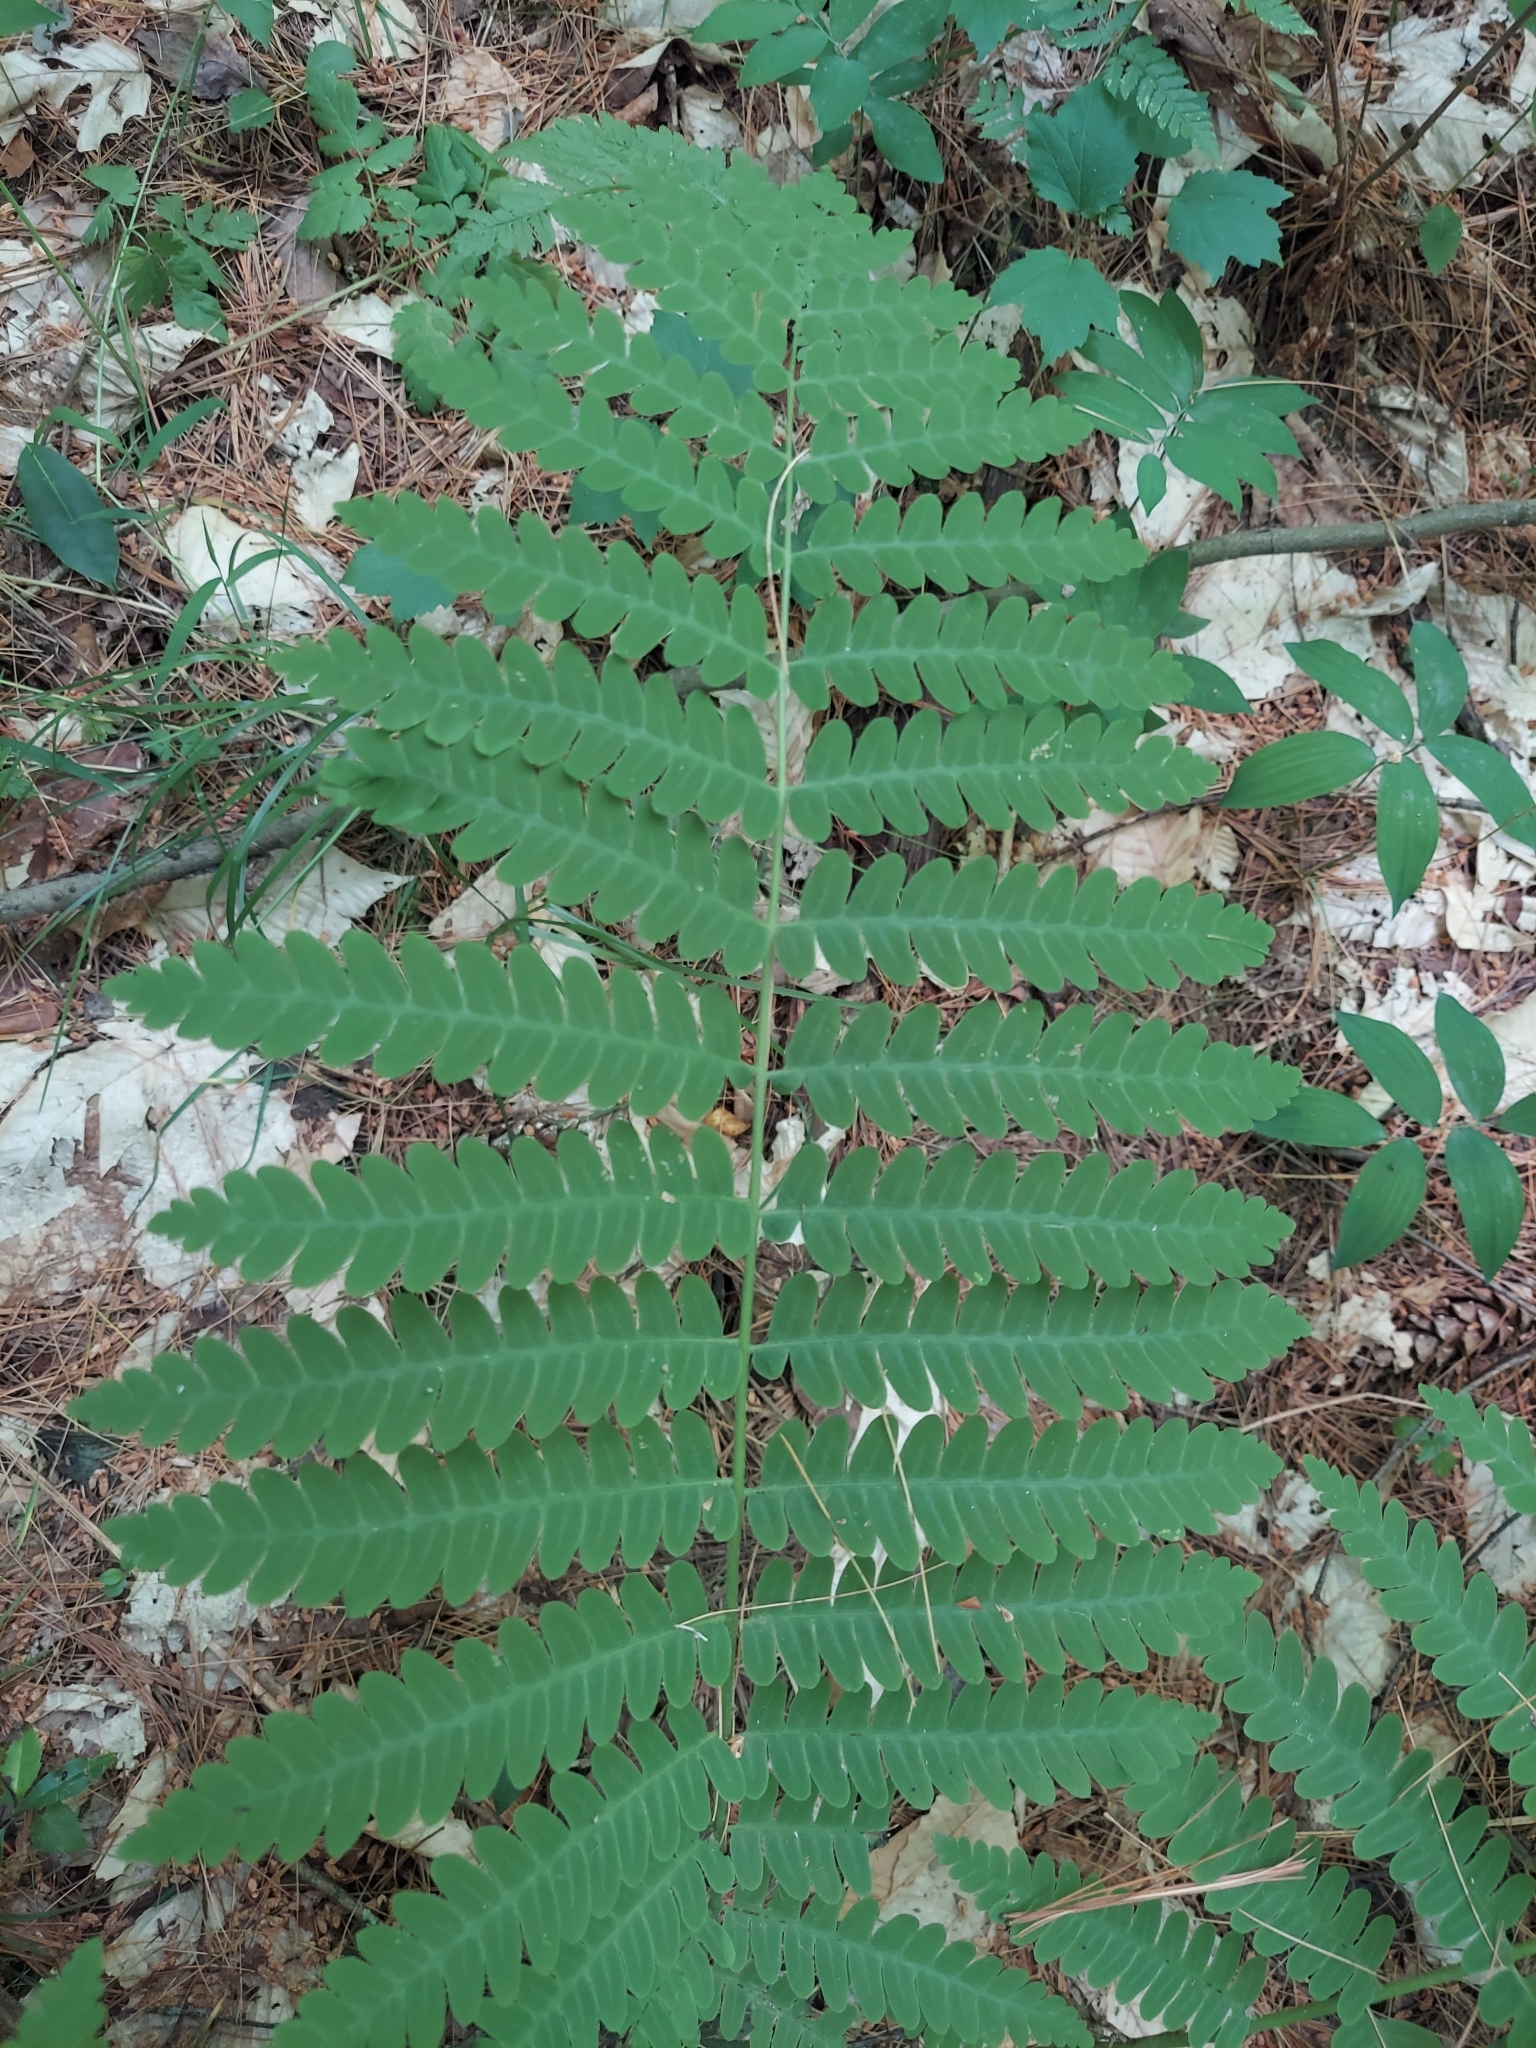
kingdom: Plantae
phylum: Tracheophyta
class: Polypodiopsida
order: Osmundales
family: Osmundaceae
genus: Claytosmunda
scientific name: Claytosmunda claytoniana
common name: Clayton's fern
